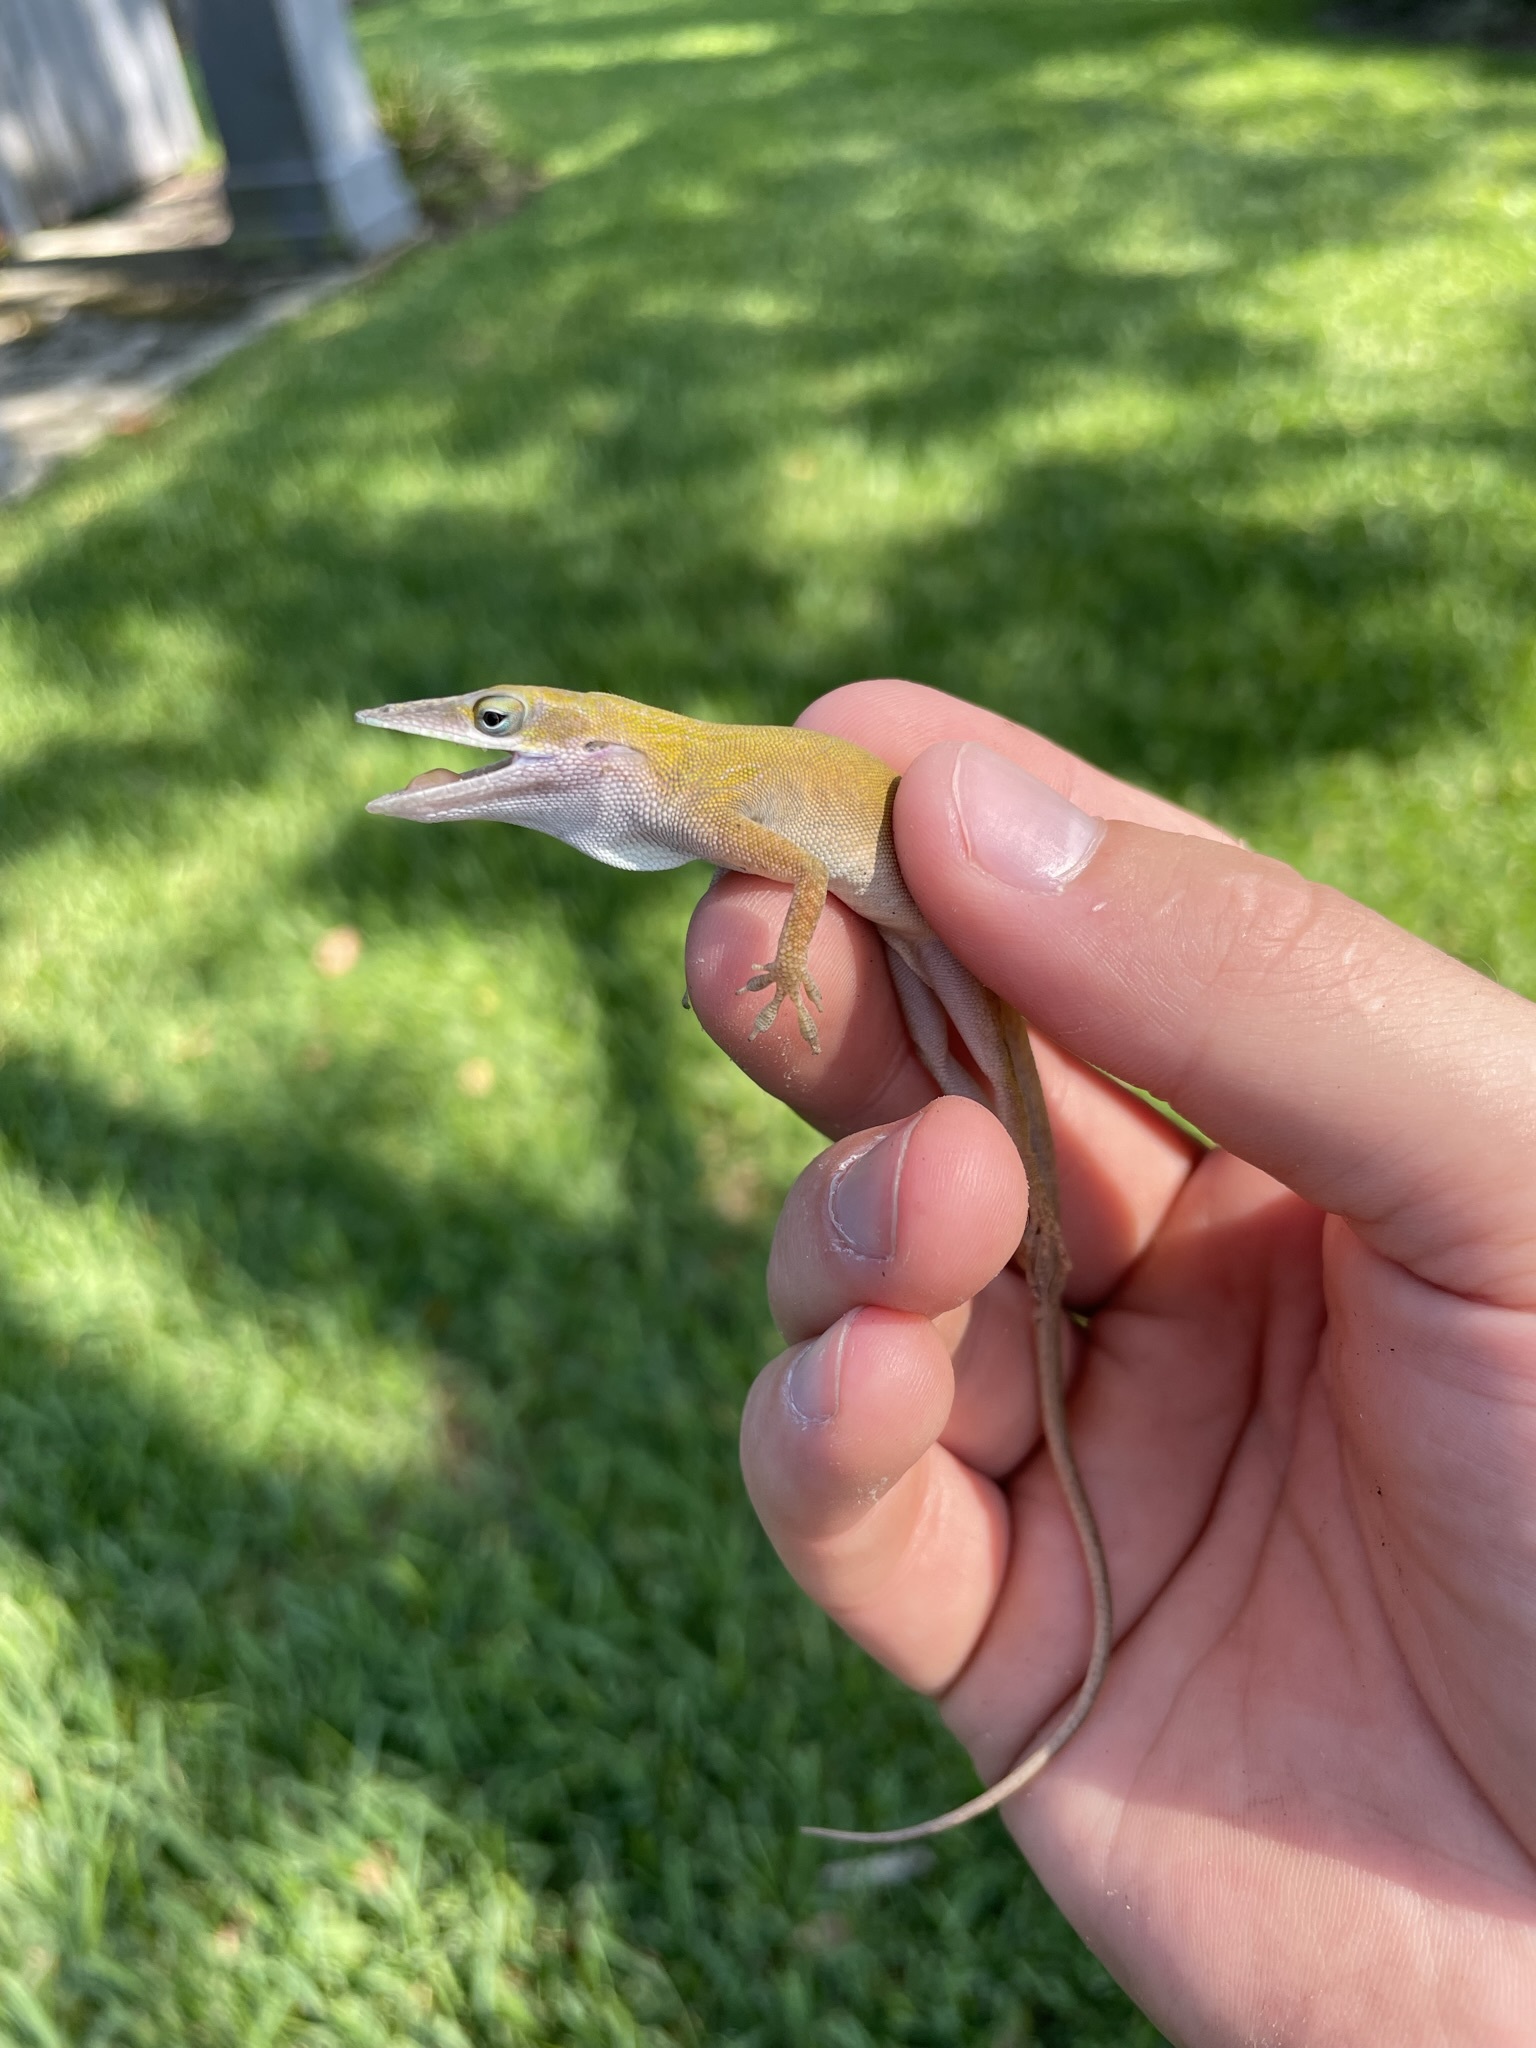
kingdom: Animalia
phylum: Chordata
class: Squamata
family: Dactyloidae
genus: Anolis
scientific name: Anolis allisoni
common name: Allison's anole
